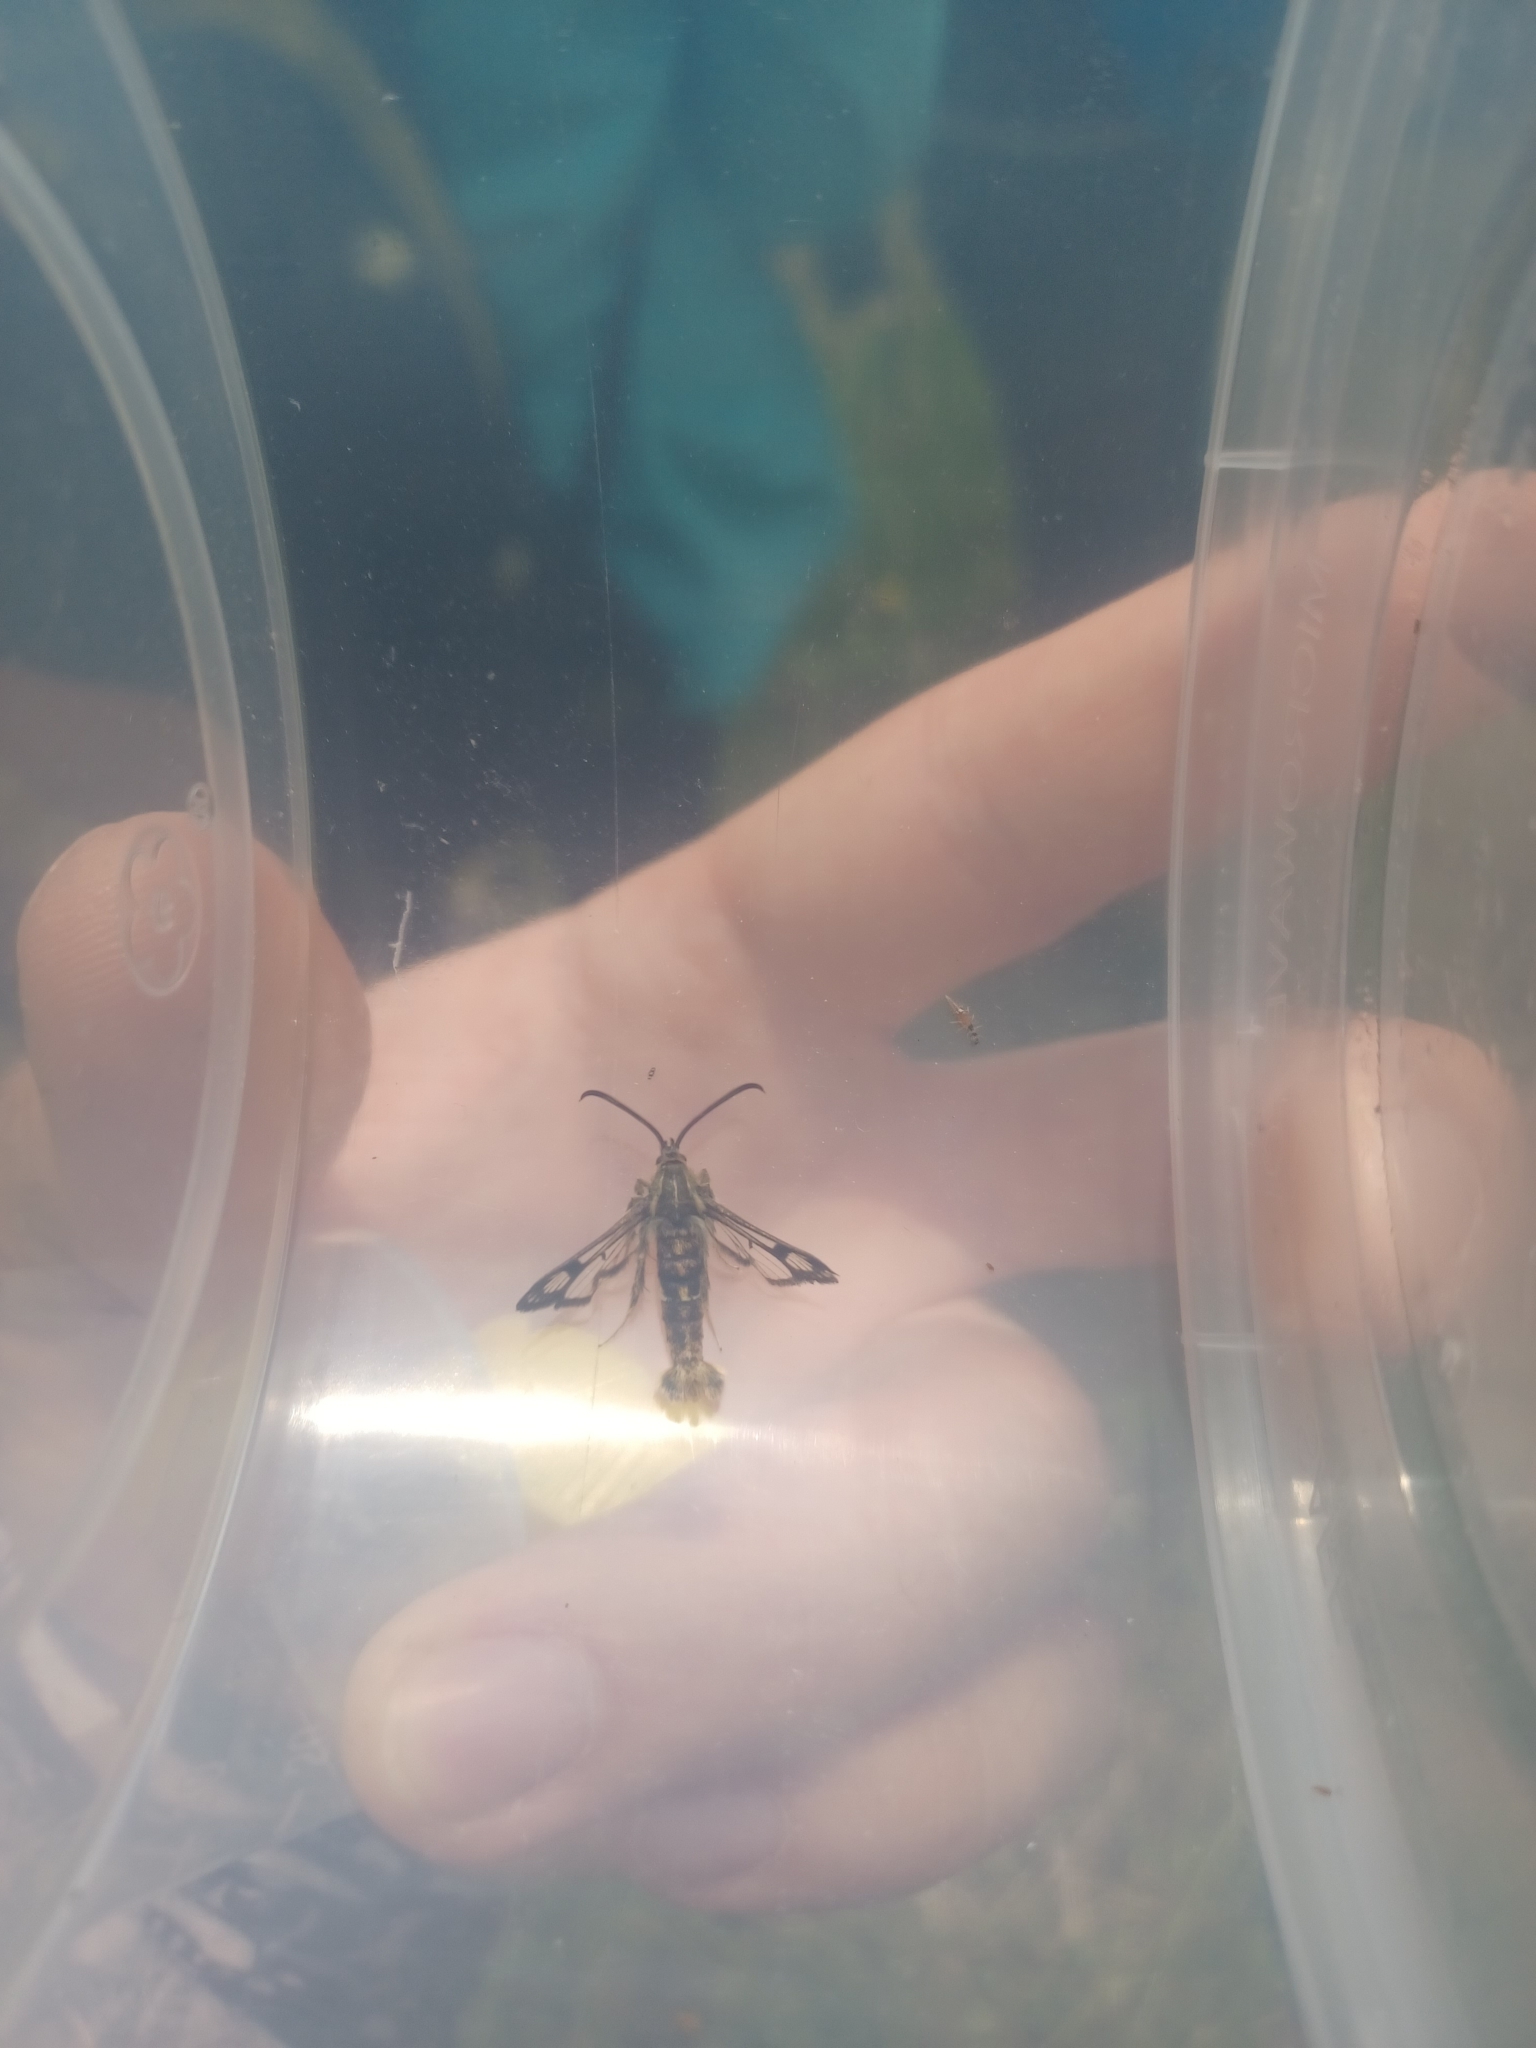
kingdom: Animalia
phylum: Arthropoda
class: Insecta
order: Lepidoptera
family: Sesiidae
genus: Chamaesphecia
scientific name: Chamaesphecia euceraeformis
